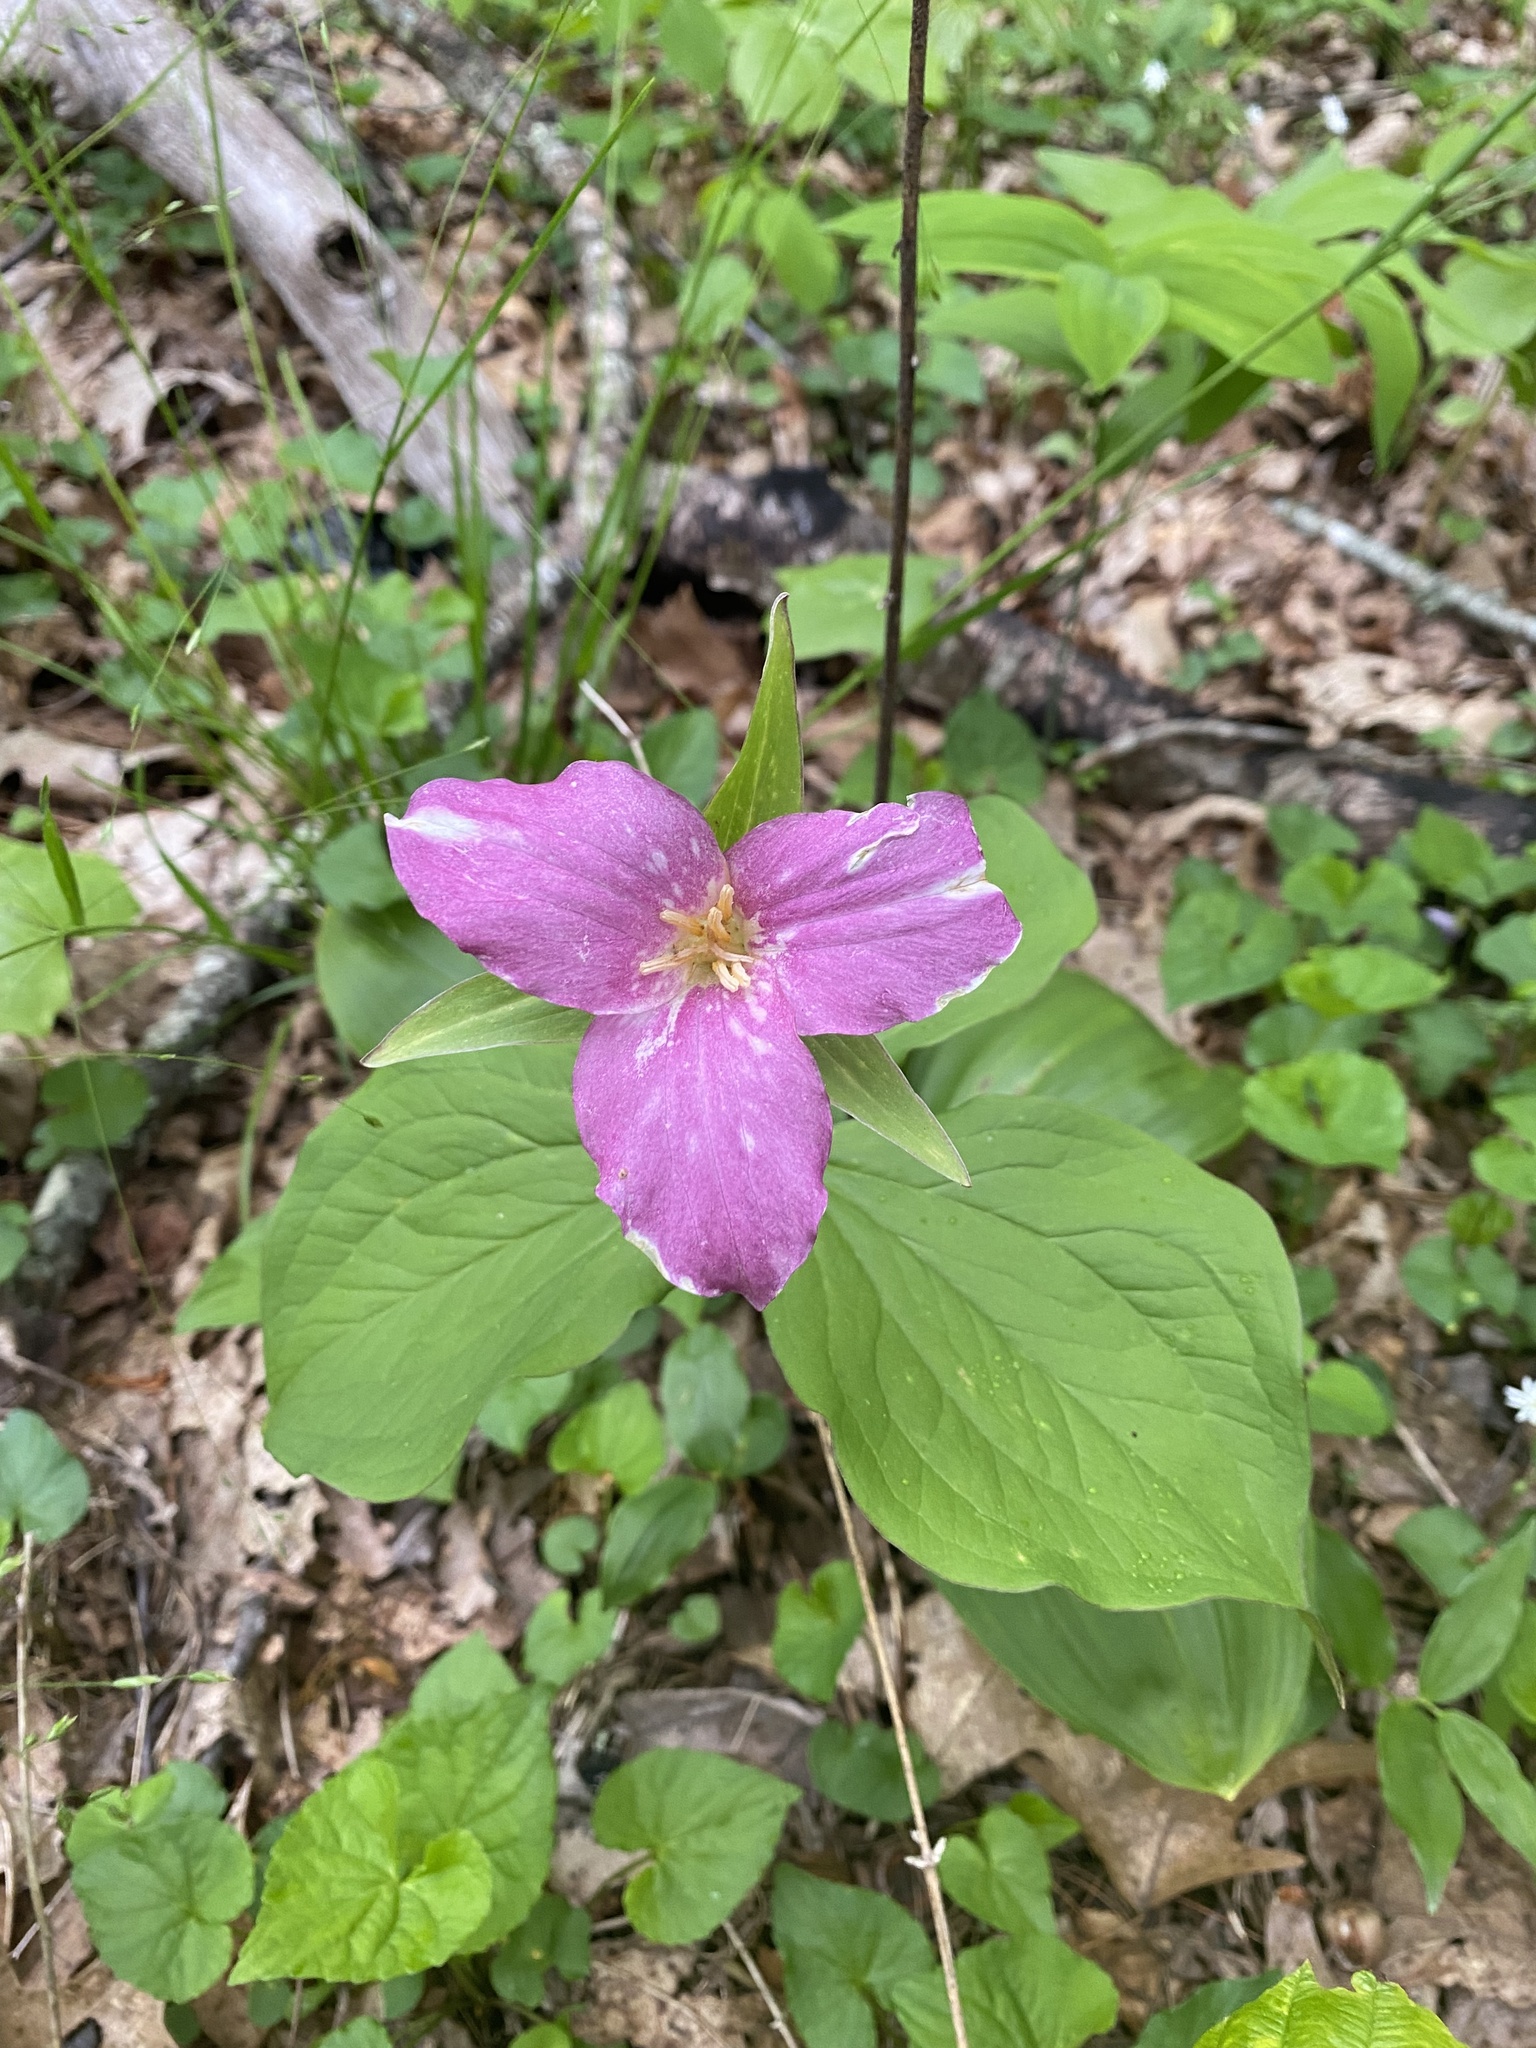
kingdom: Plantae
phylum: Tracheophyta
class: Liliopsida
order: Liliales
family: Melanthiaceae
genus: Trillium
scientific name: Trillium grandiflorum
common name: Great white trillium
